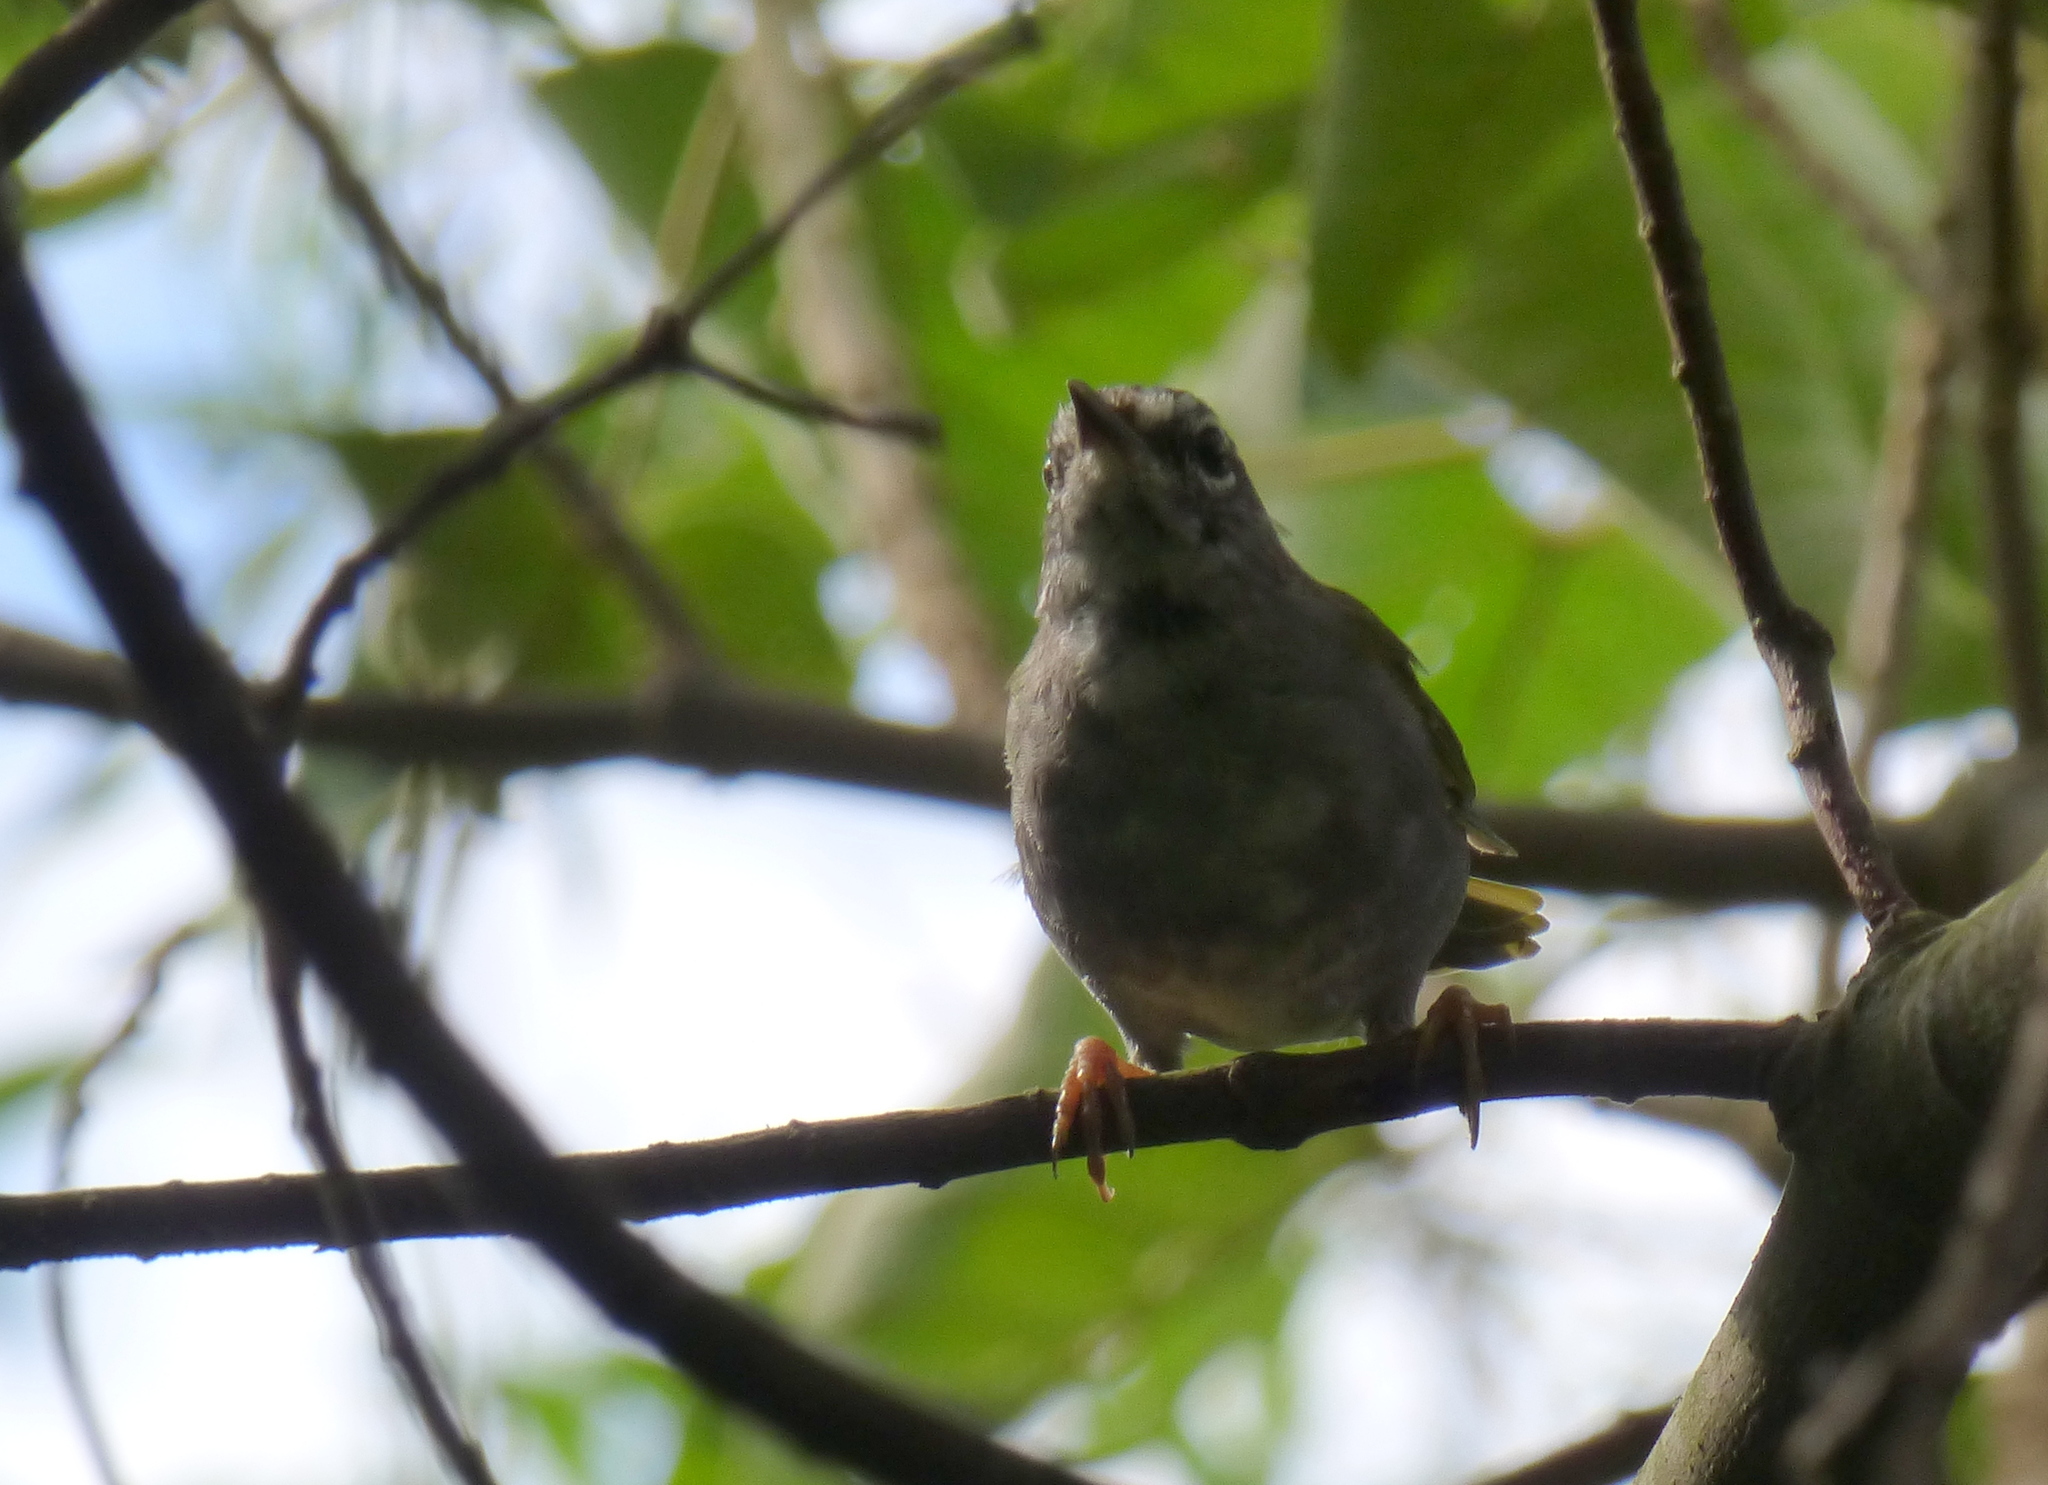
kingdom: Animalia
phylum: Chordata
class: Aves
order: Passeriformes
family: Parulidae
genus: Myiothlypis
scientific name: Myiothlypis leucoblephara
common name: White-rimmed warbler
